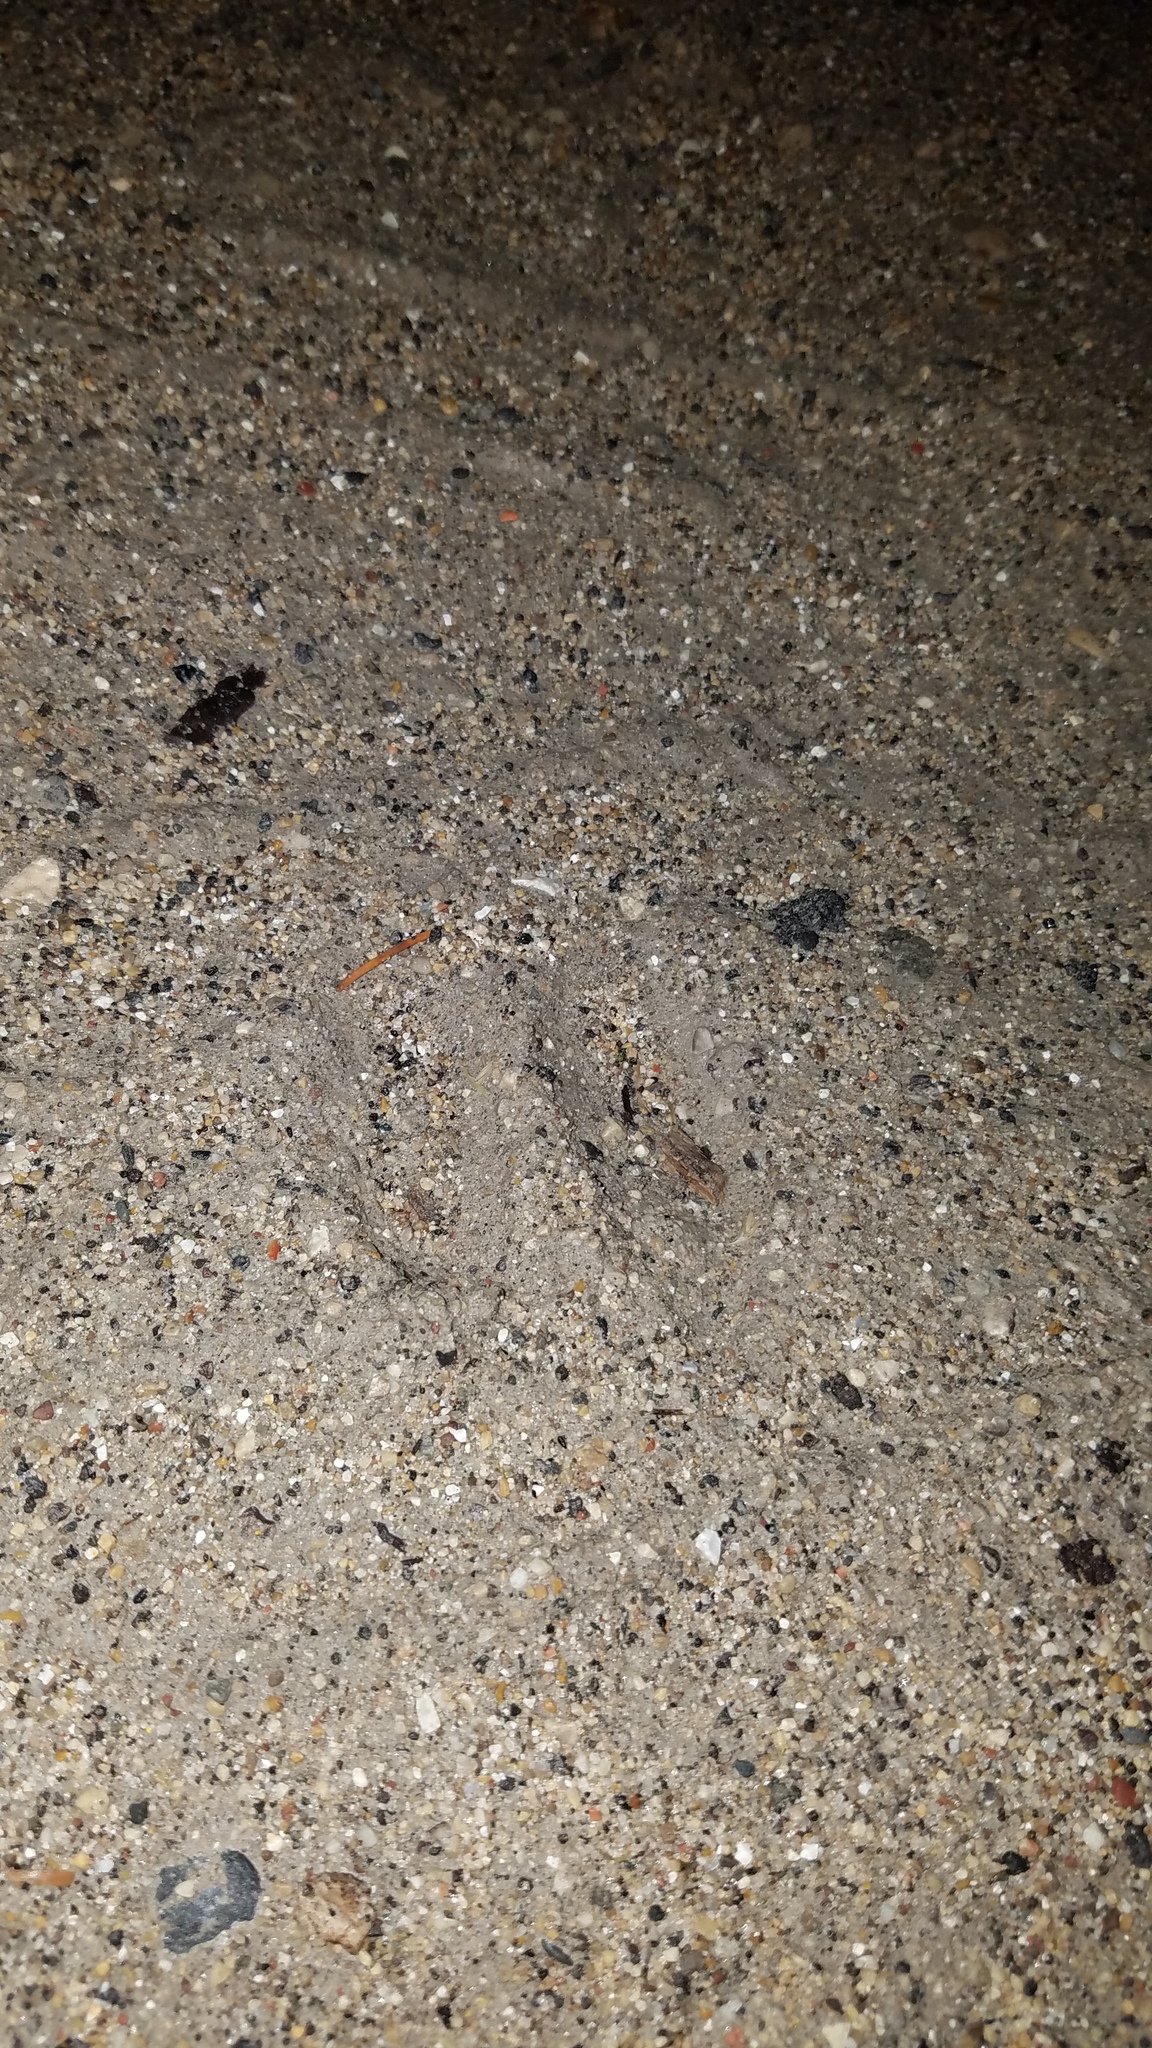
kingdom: Animalia
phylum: Chordata
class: Mammalia
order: Artiodactyla
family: Cervidae
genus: Odocoileus
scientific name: Odocoileus virginianus
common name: White-tailed deer
